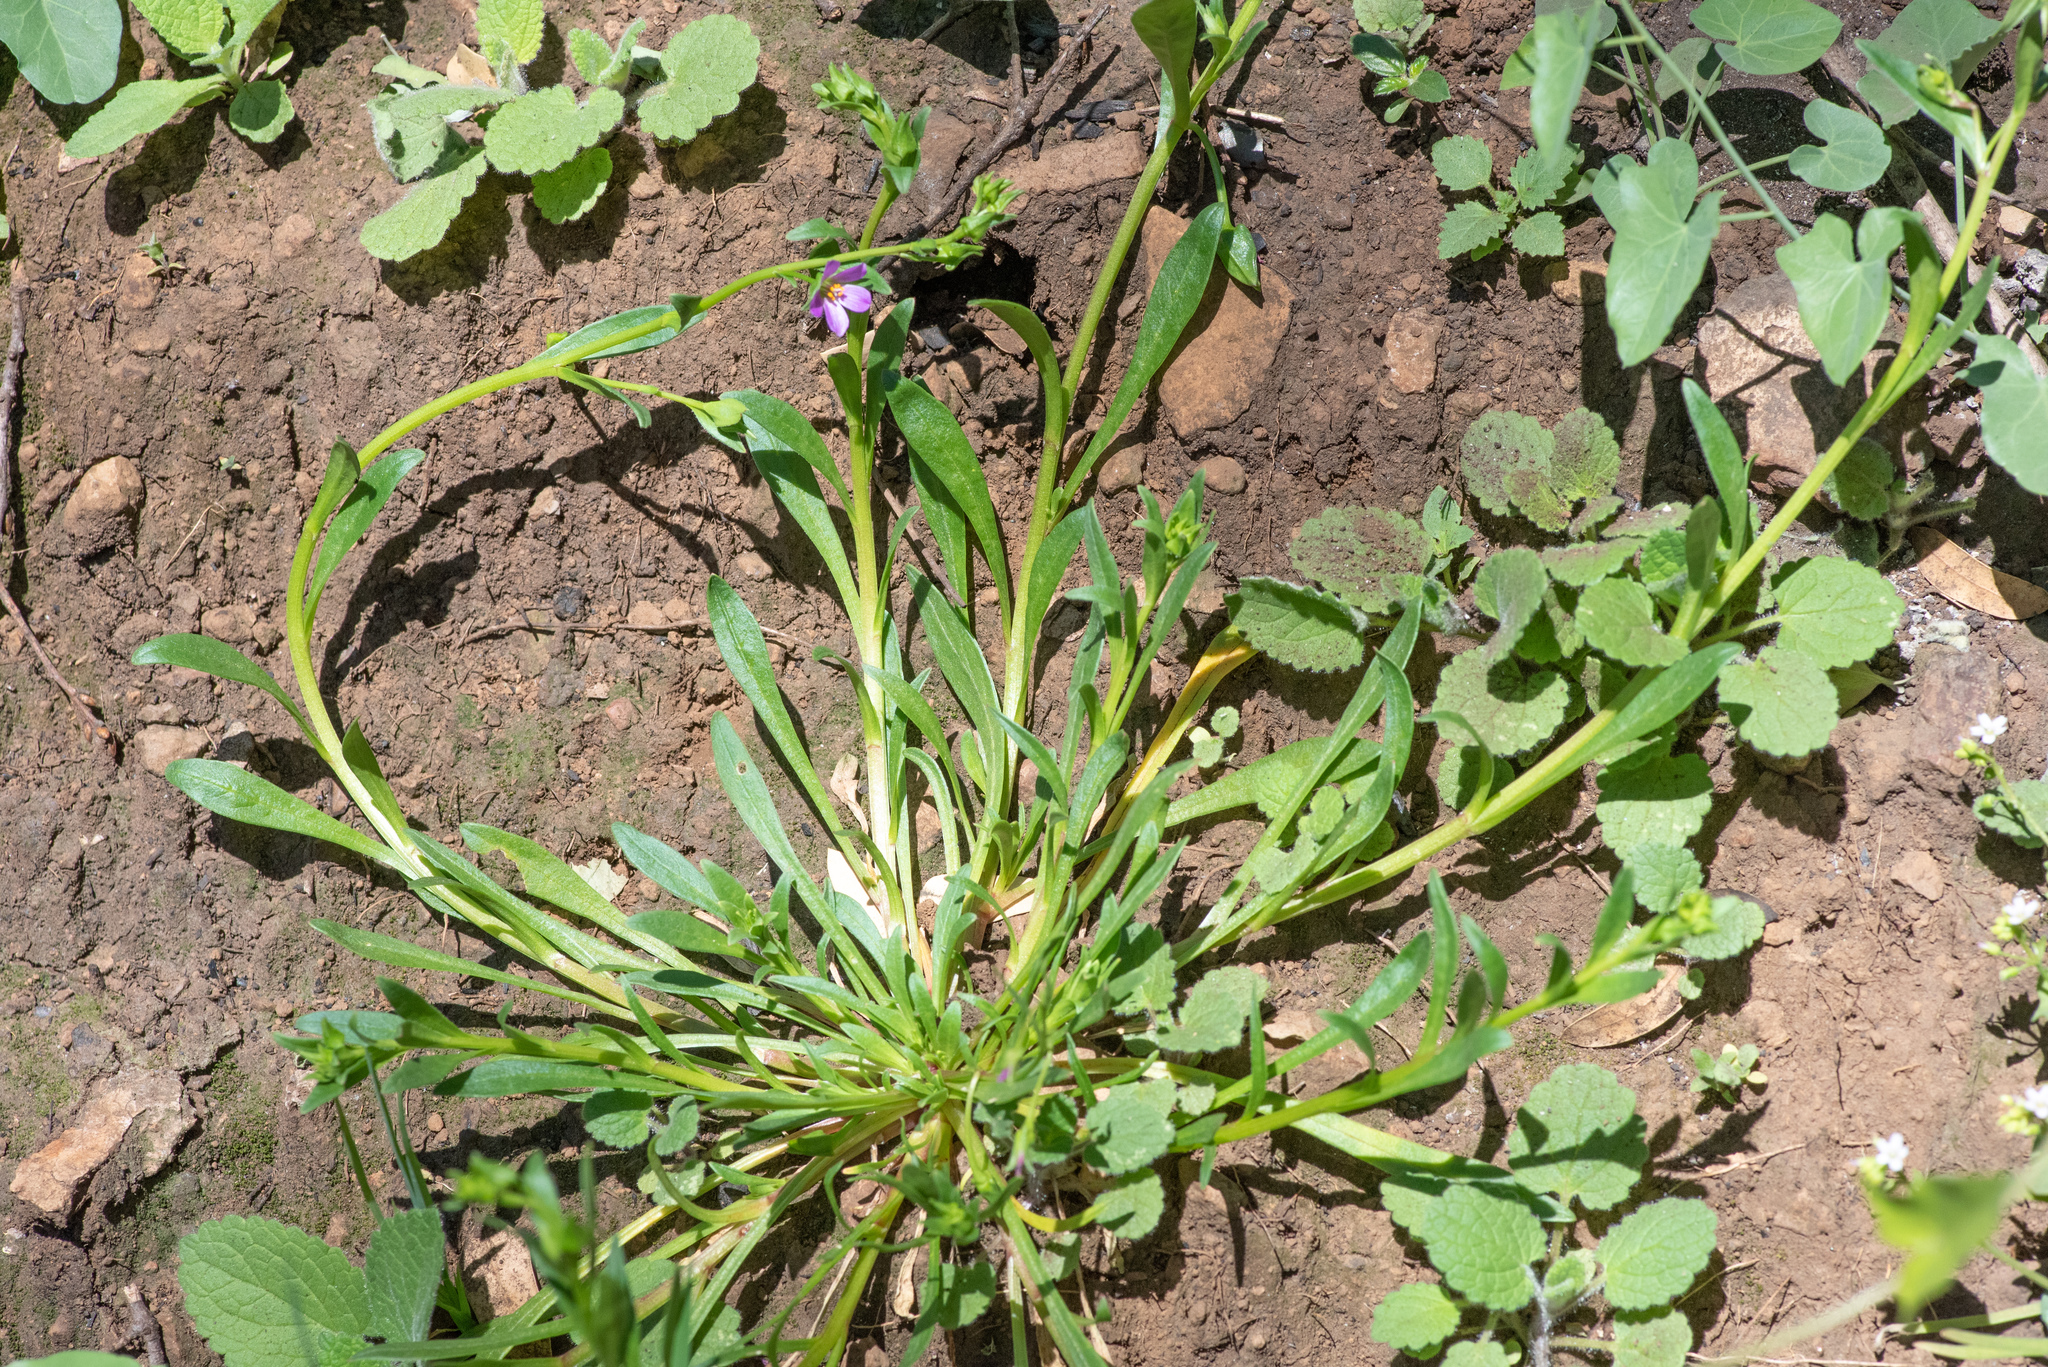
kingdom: Plantae
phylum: Tracheophyta
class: Magnoliopsida
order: Caryophyllales
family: Montiaceae
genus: Calandrinia
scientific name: Calandrinia breweri
